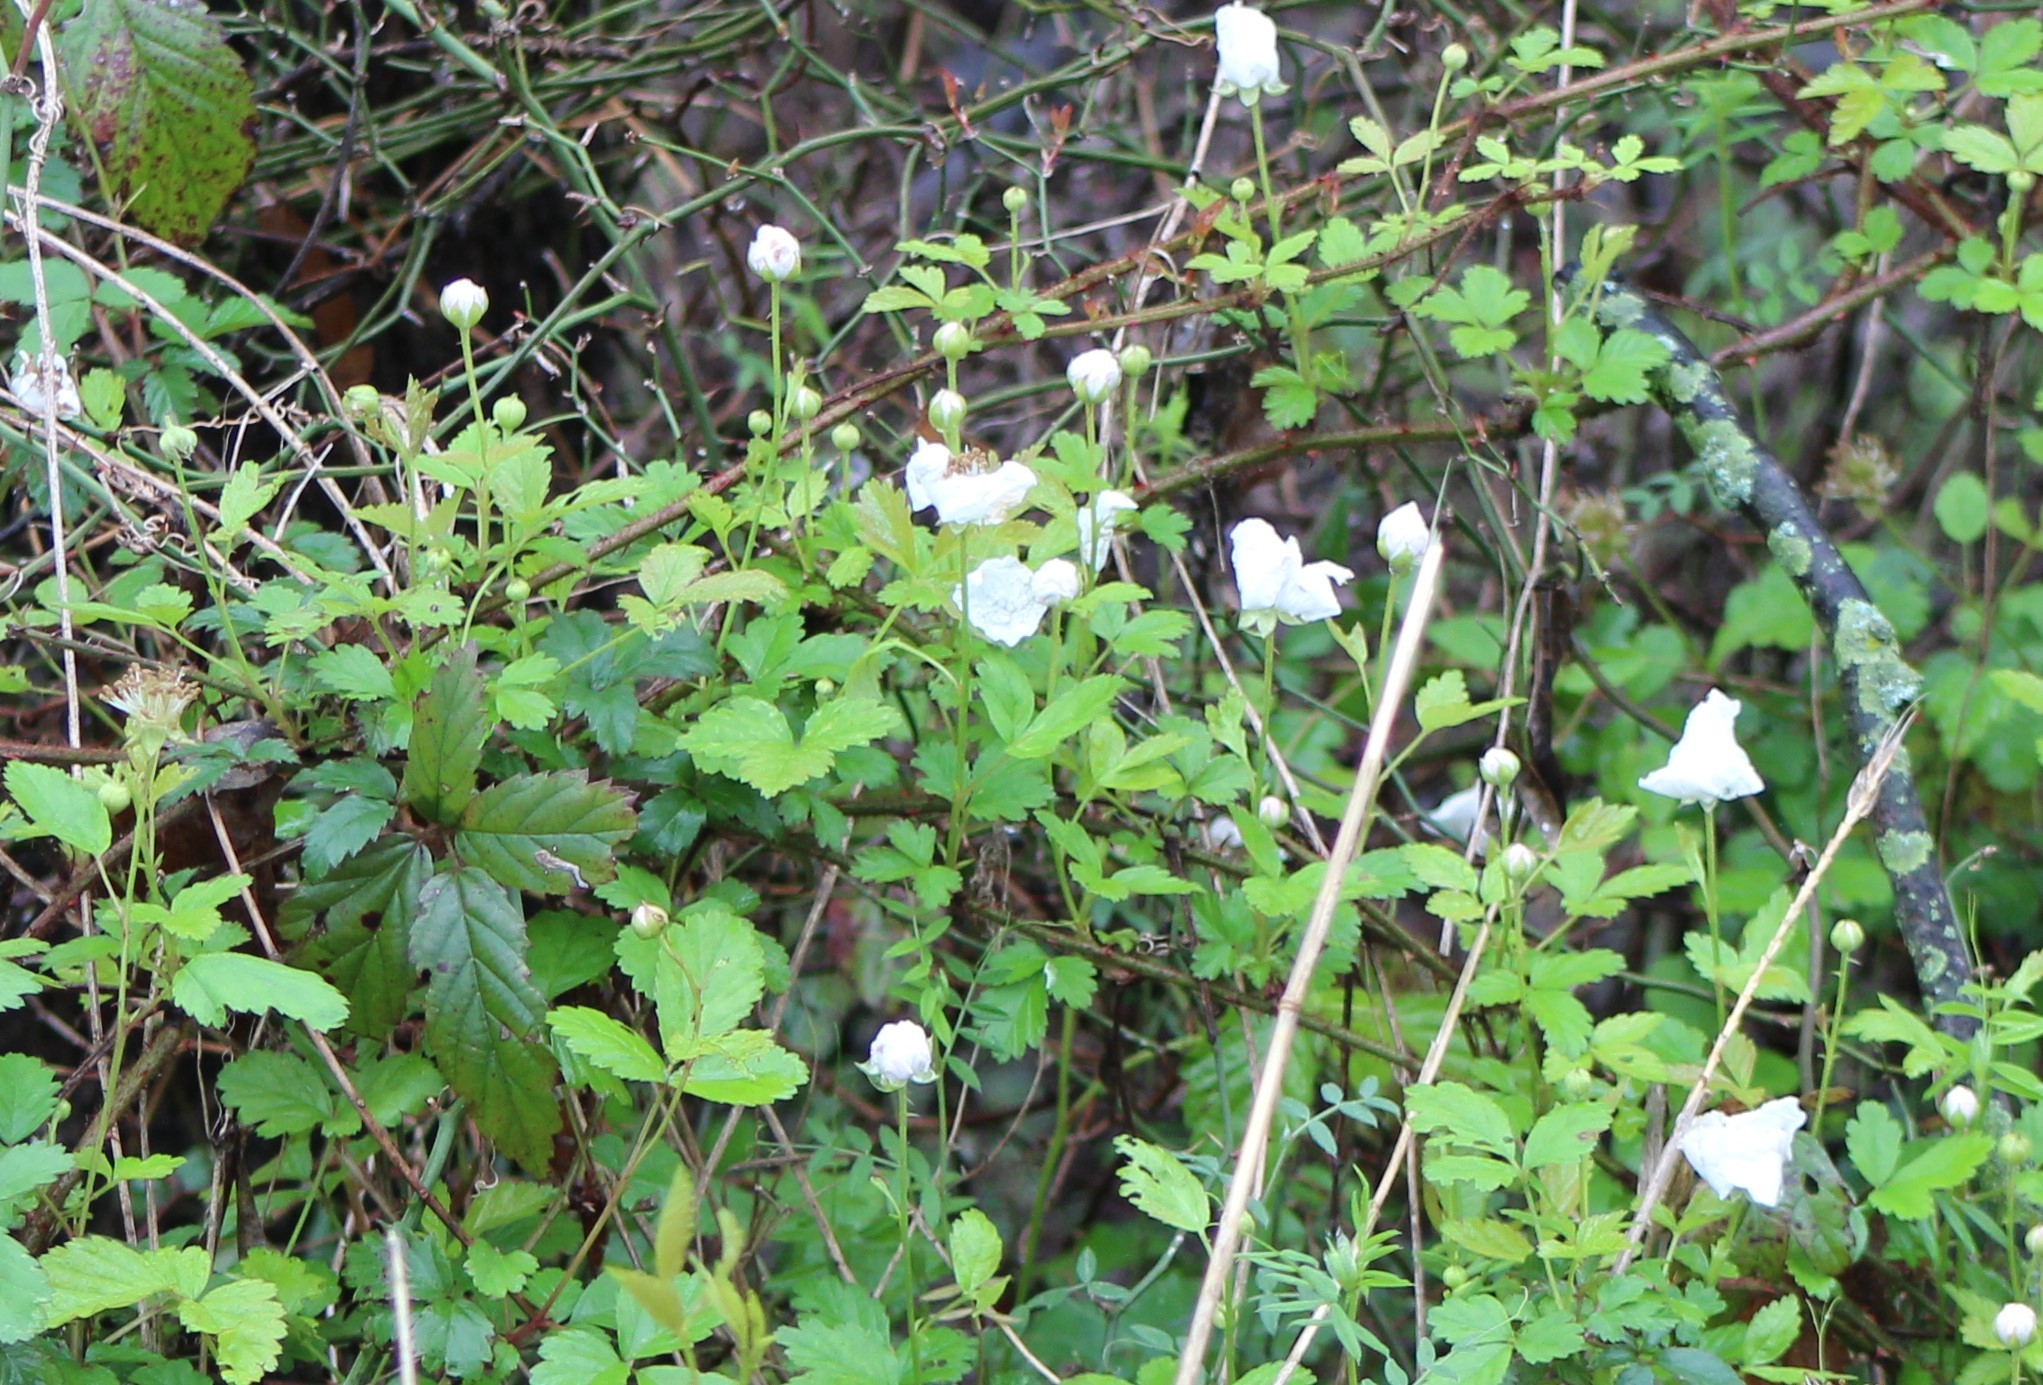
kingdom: Plantae
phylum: Tracheophyta
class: Magnoliopsida
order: Rosales
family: Rosaceae
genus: Rubus
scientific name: Rubus trivialis
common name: Southern dewberry
